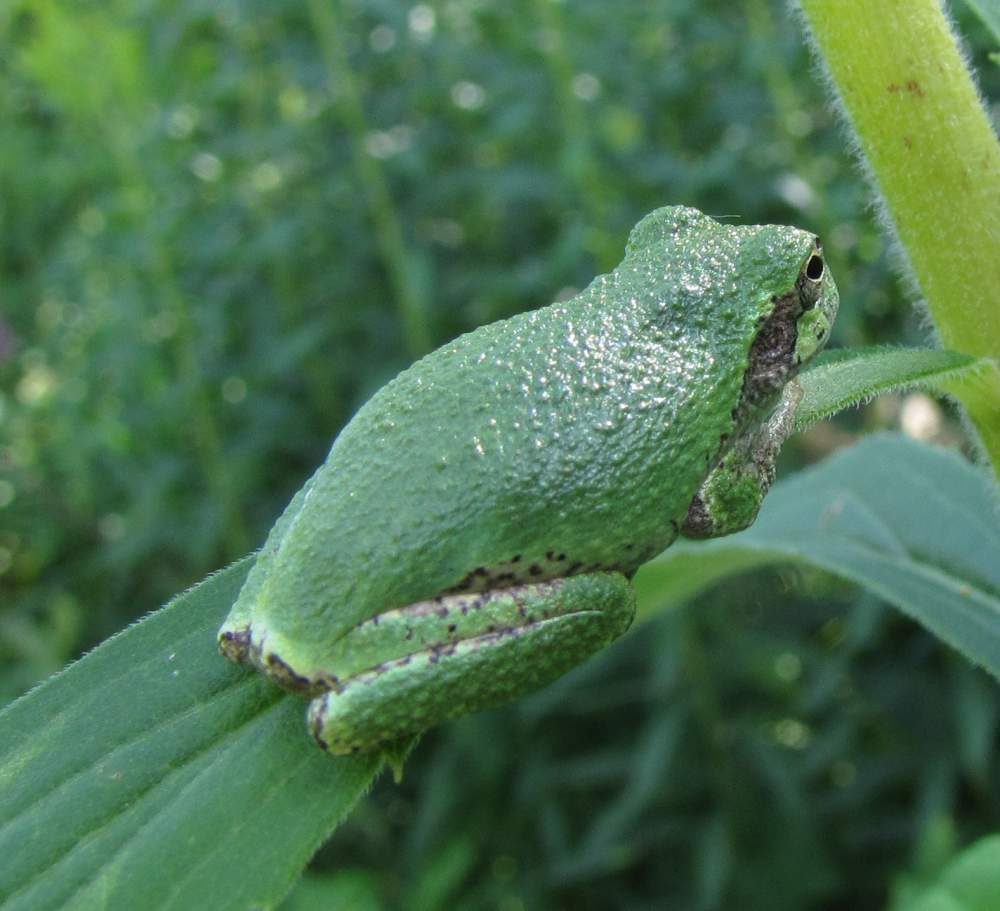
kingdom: Animalia
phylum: Chordata
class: Amphibia
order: Anura
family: Hylidae
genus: Dryophytes
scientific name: Dryophytes versicolor
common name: Gray treefrog
